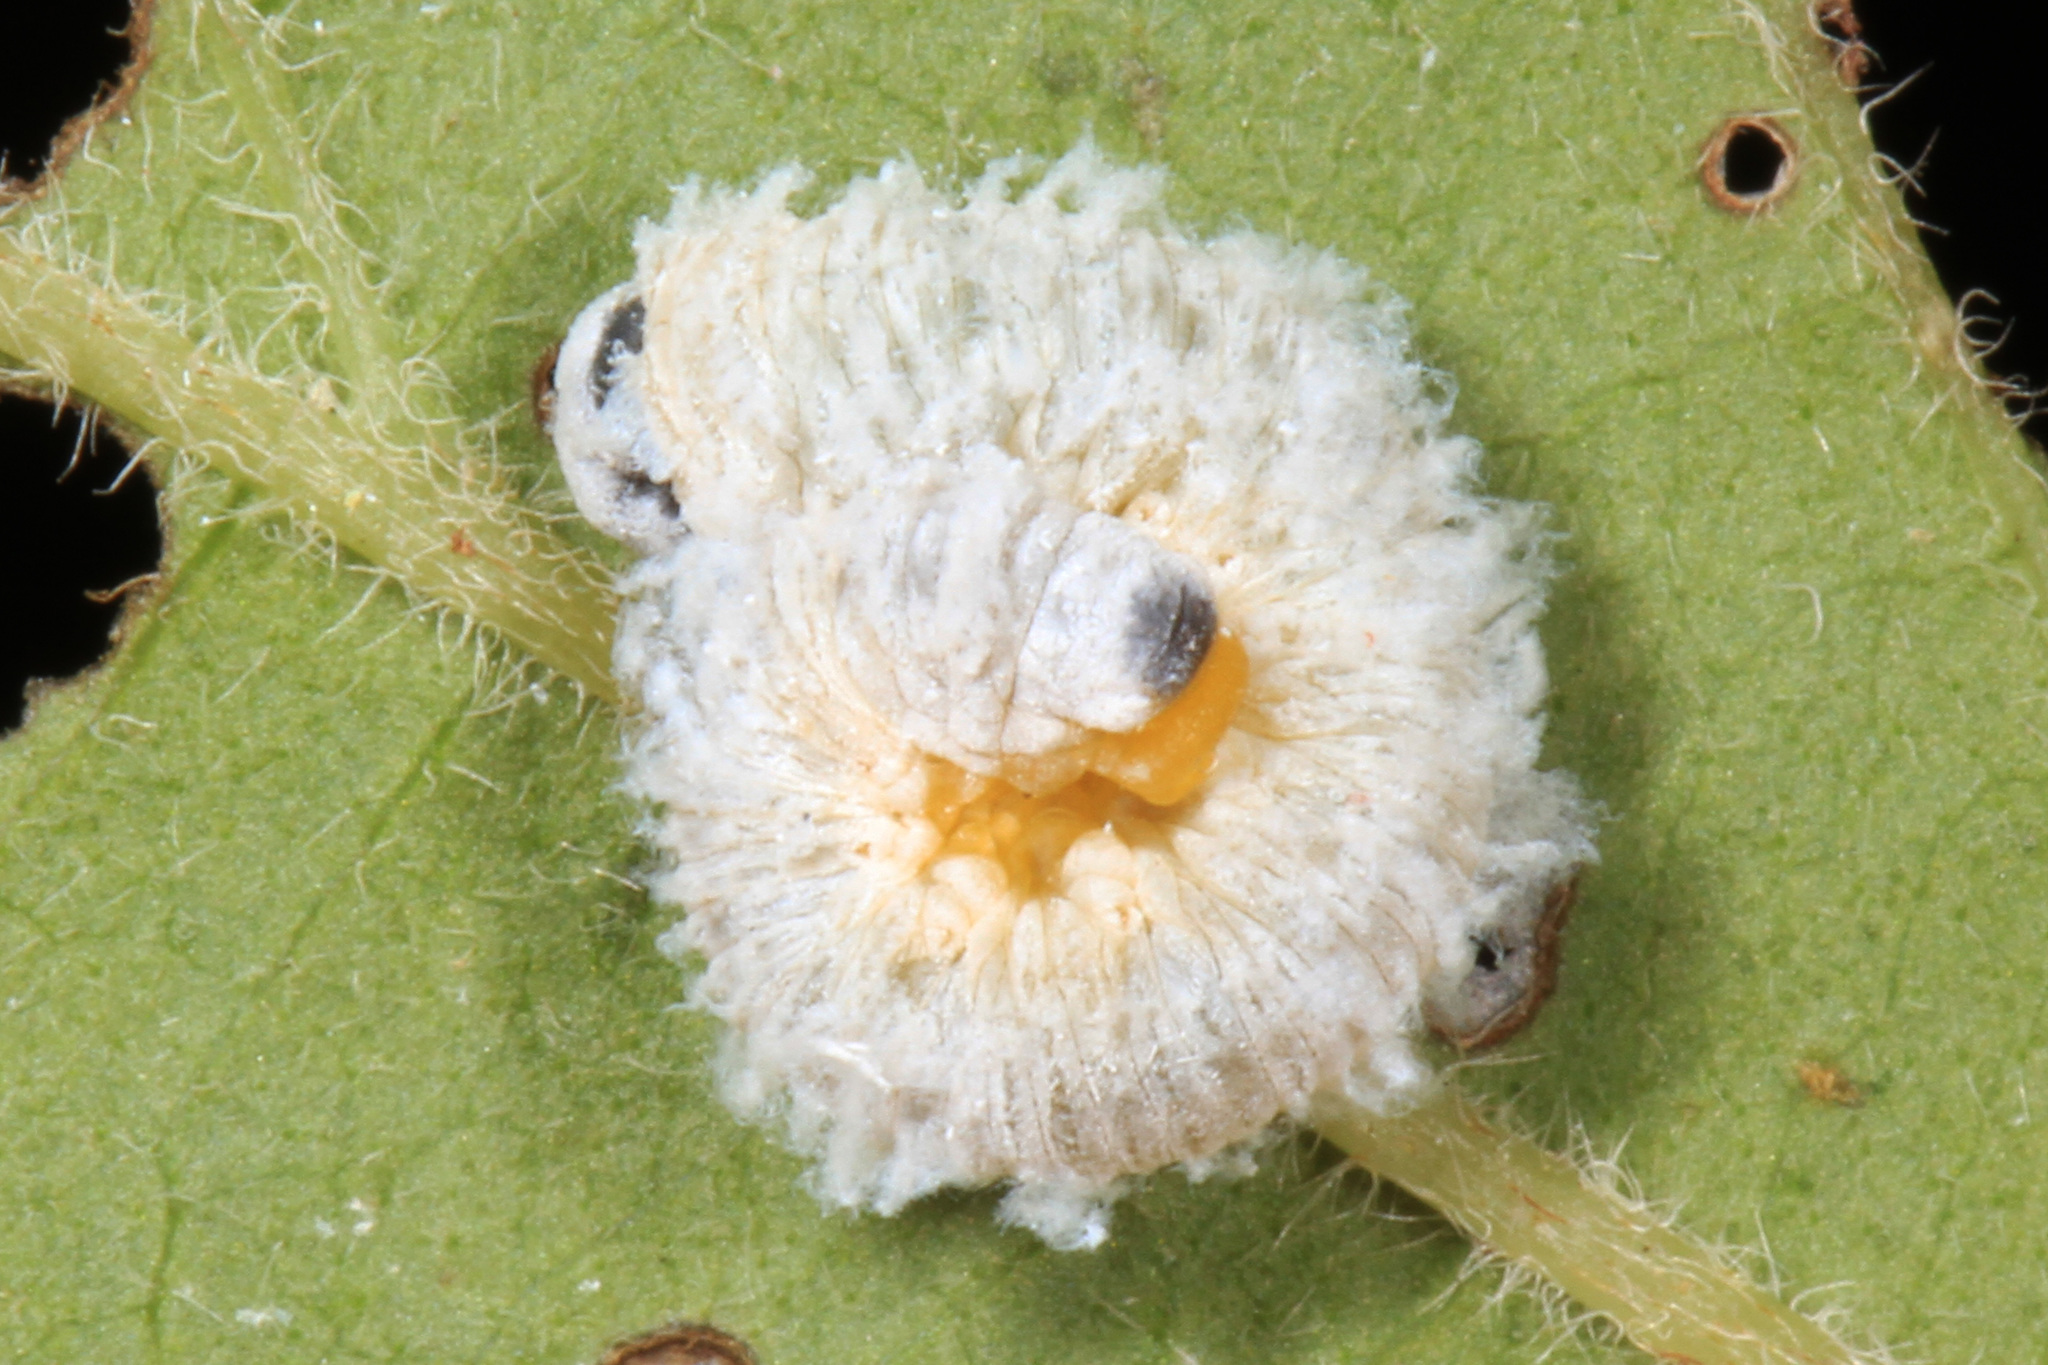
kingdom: Animalia
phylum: Arthropoda
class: Insecta
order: Hymenoptera
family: Tenthredinidae
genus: Macremphytus
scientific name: Macremphytus testaceus
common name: Dogwood sawfly
